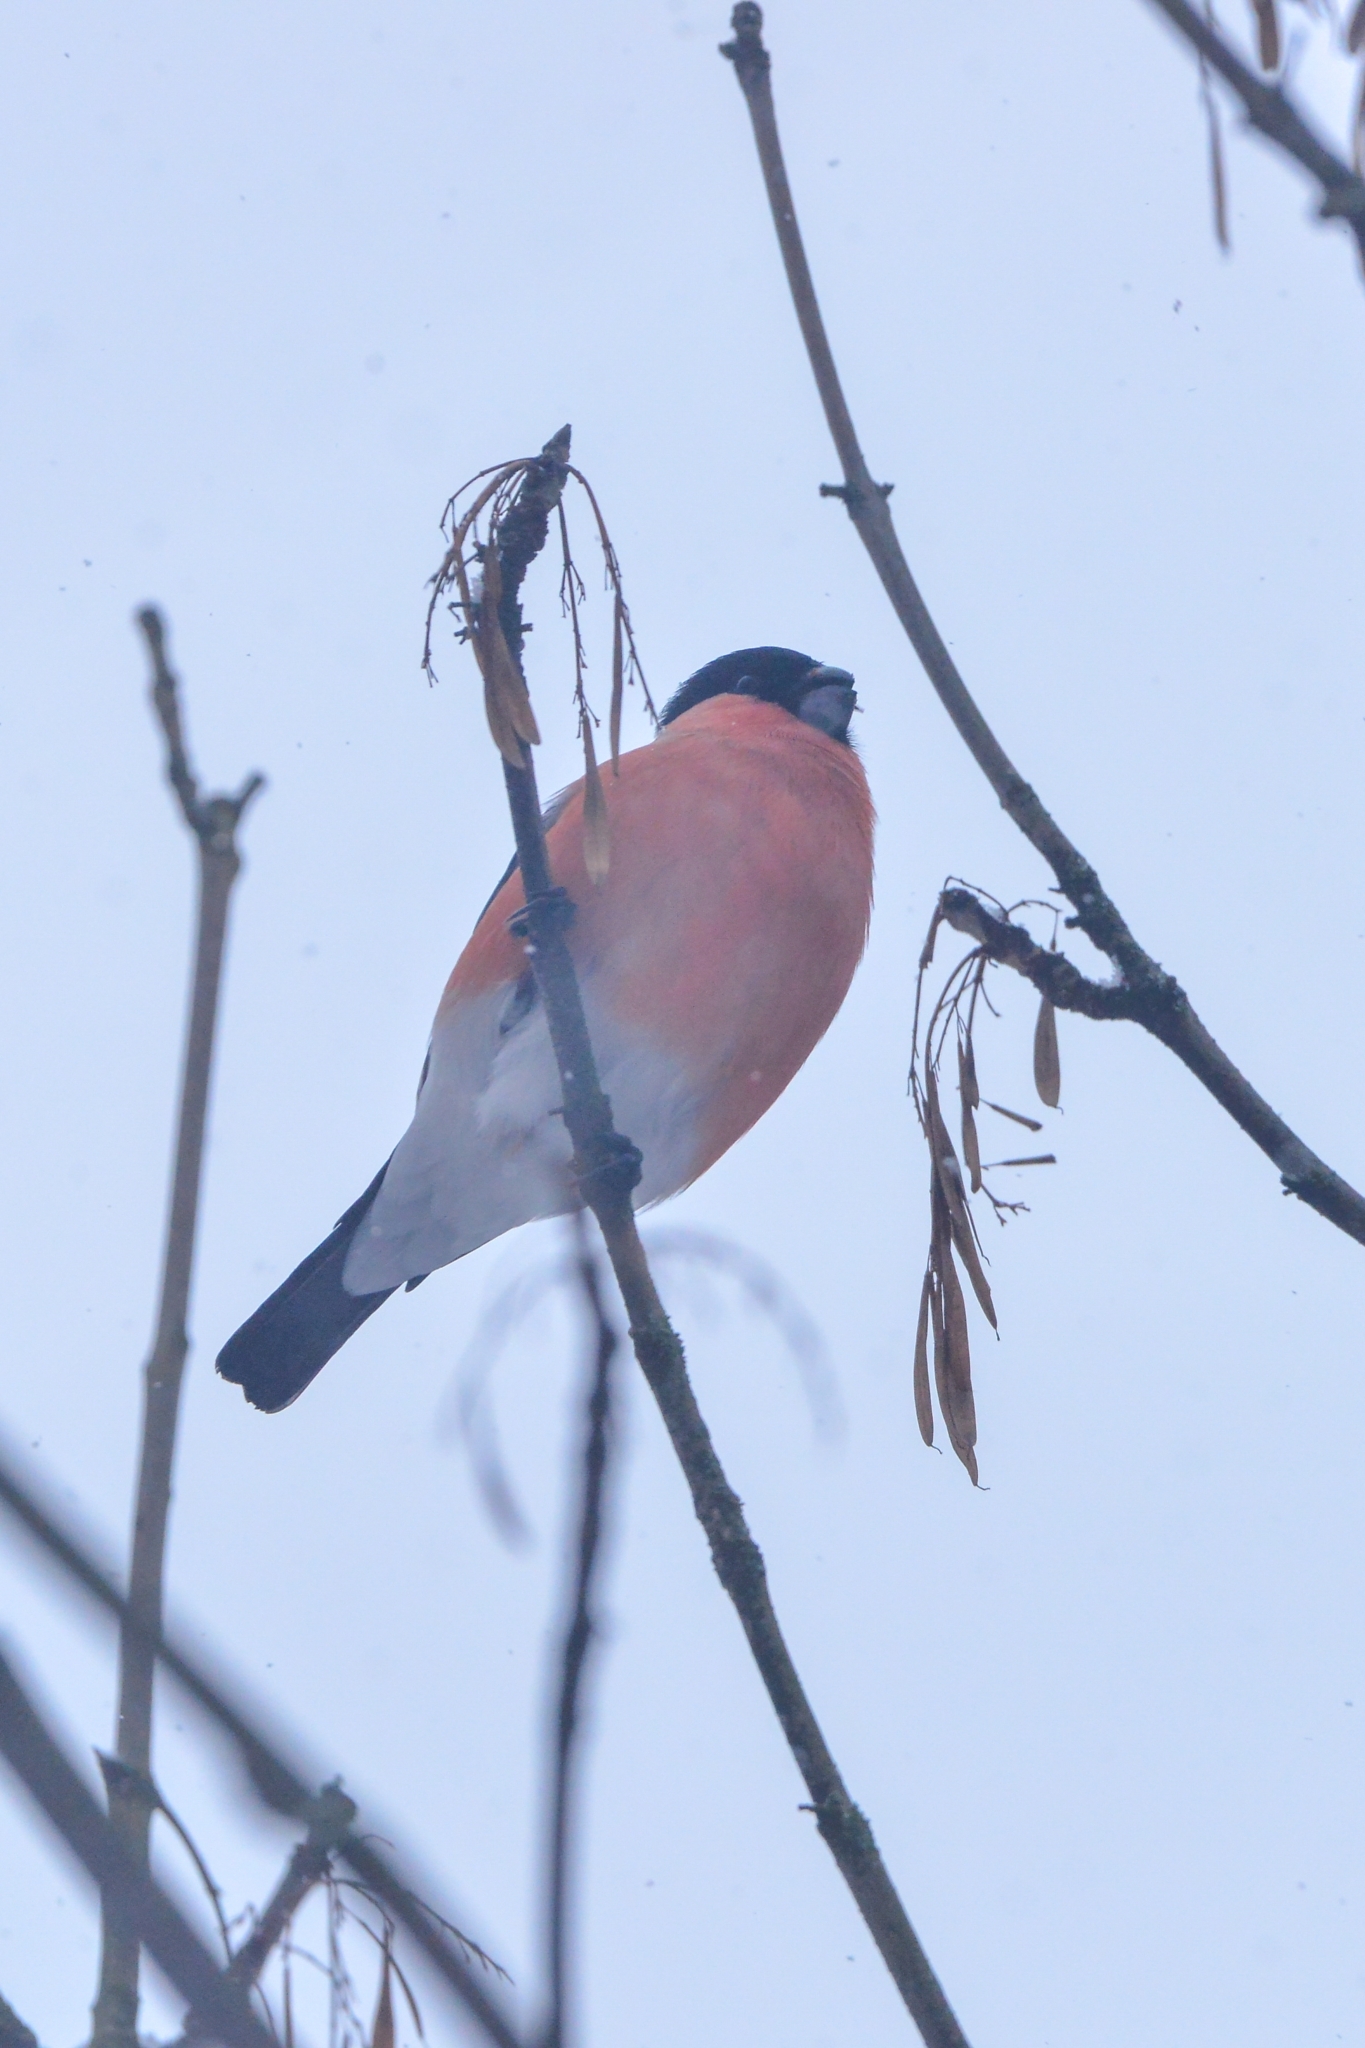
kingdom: Animalia
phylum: Chordata
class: Aves
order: Passeriformes
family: Fringillidae
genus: Pyrrhula
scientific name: Pyrrhula pyrrhula
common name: Eurasian bullfinch
